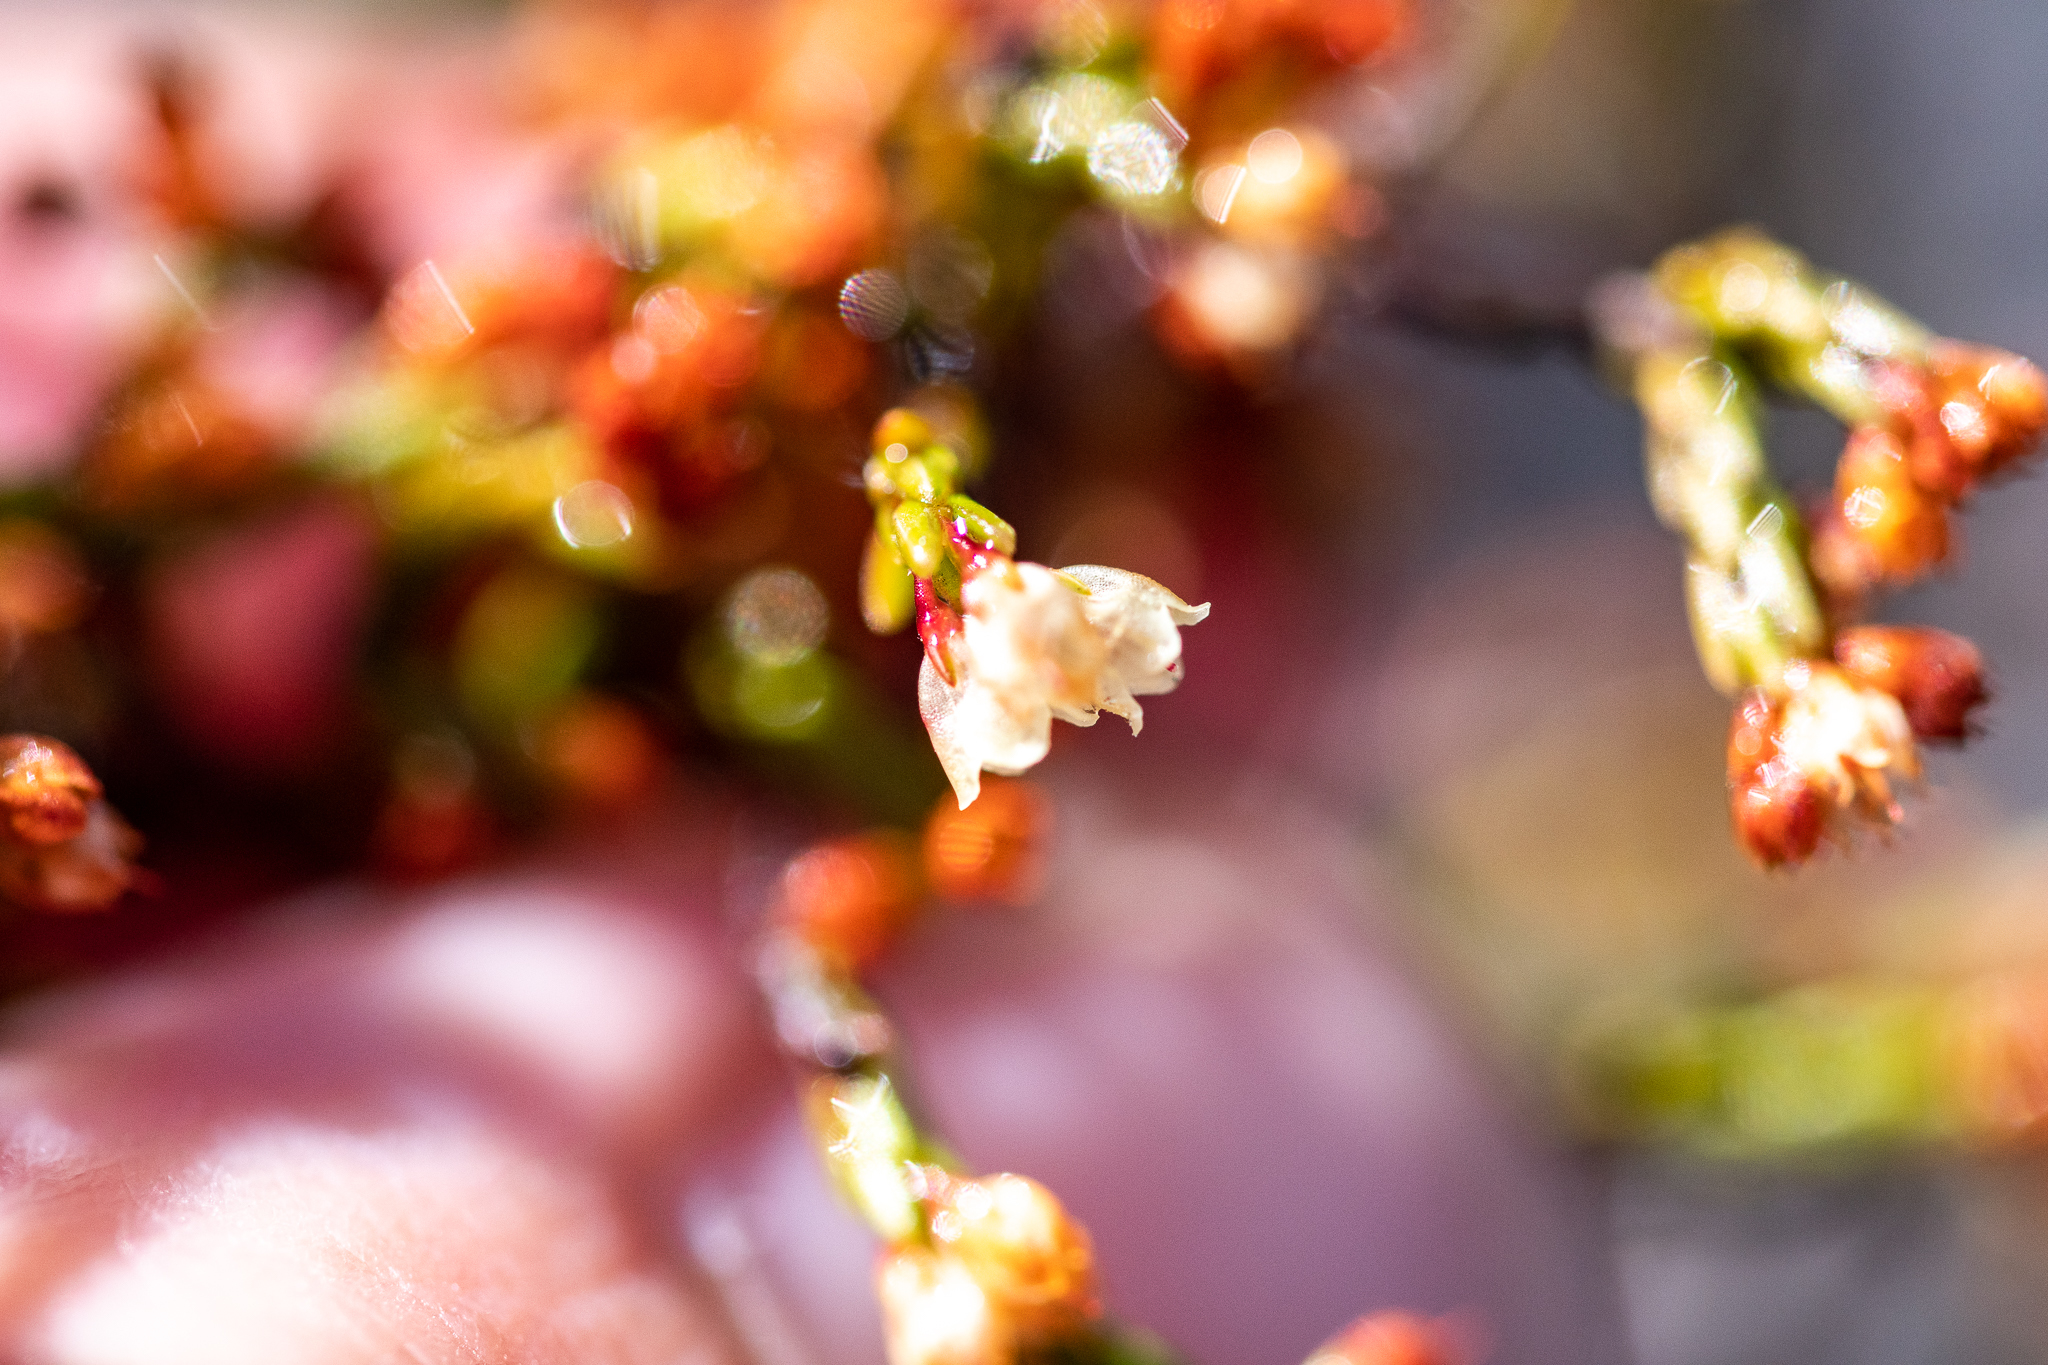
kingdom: Plantae
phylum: Tracheophyta
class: Magnoliopsida
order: Ericales
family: Ericaceae
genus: Erica
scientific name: Erica multiflexuosa
